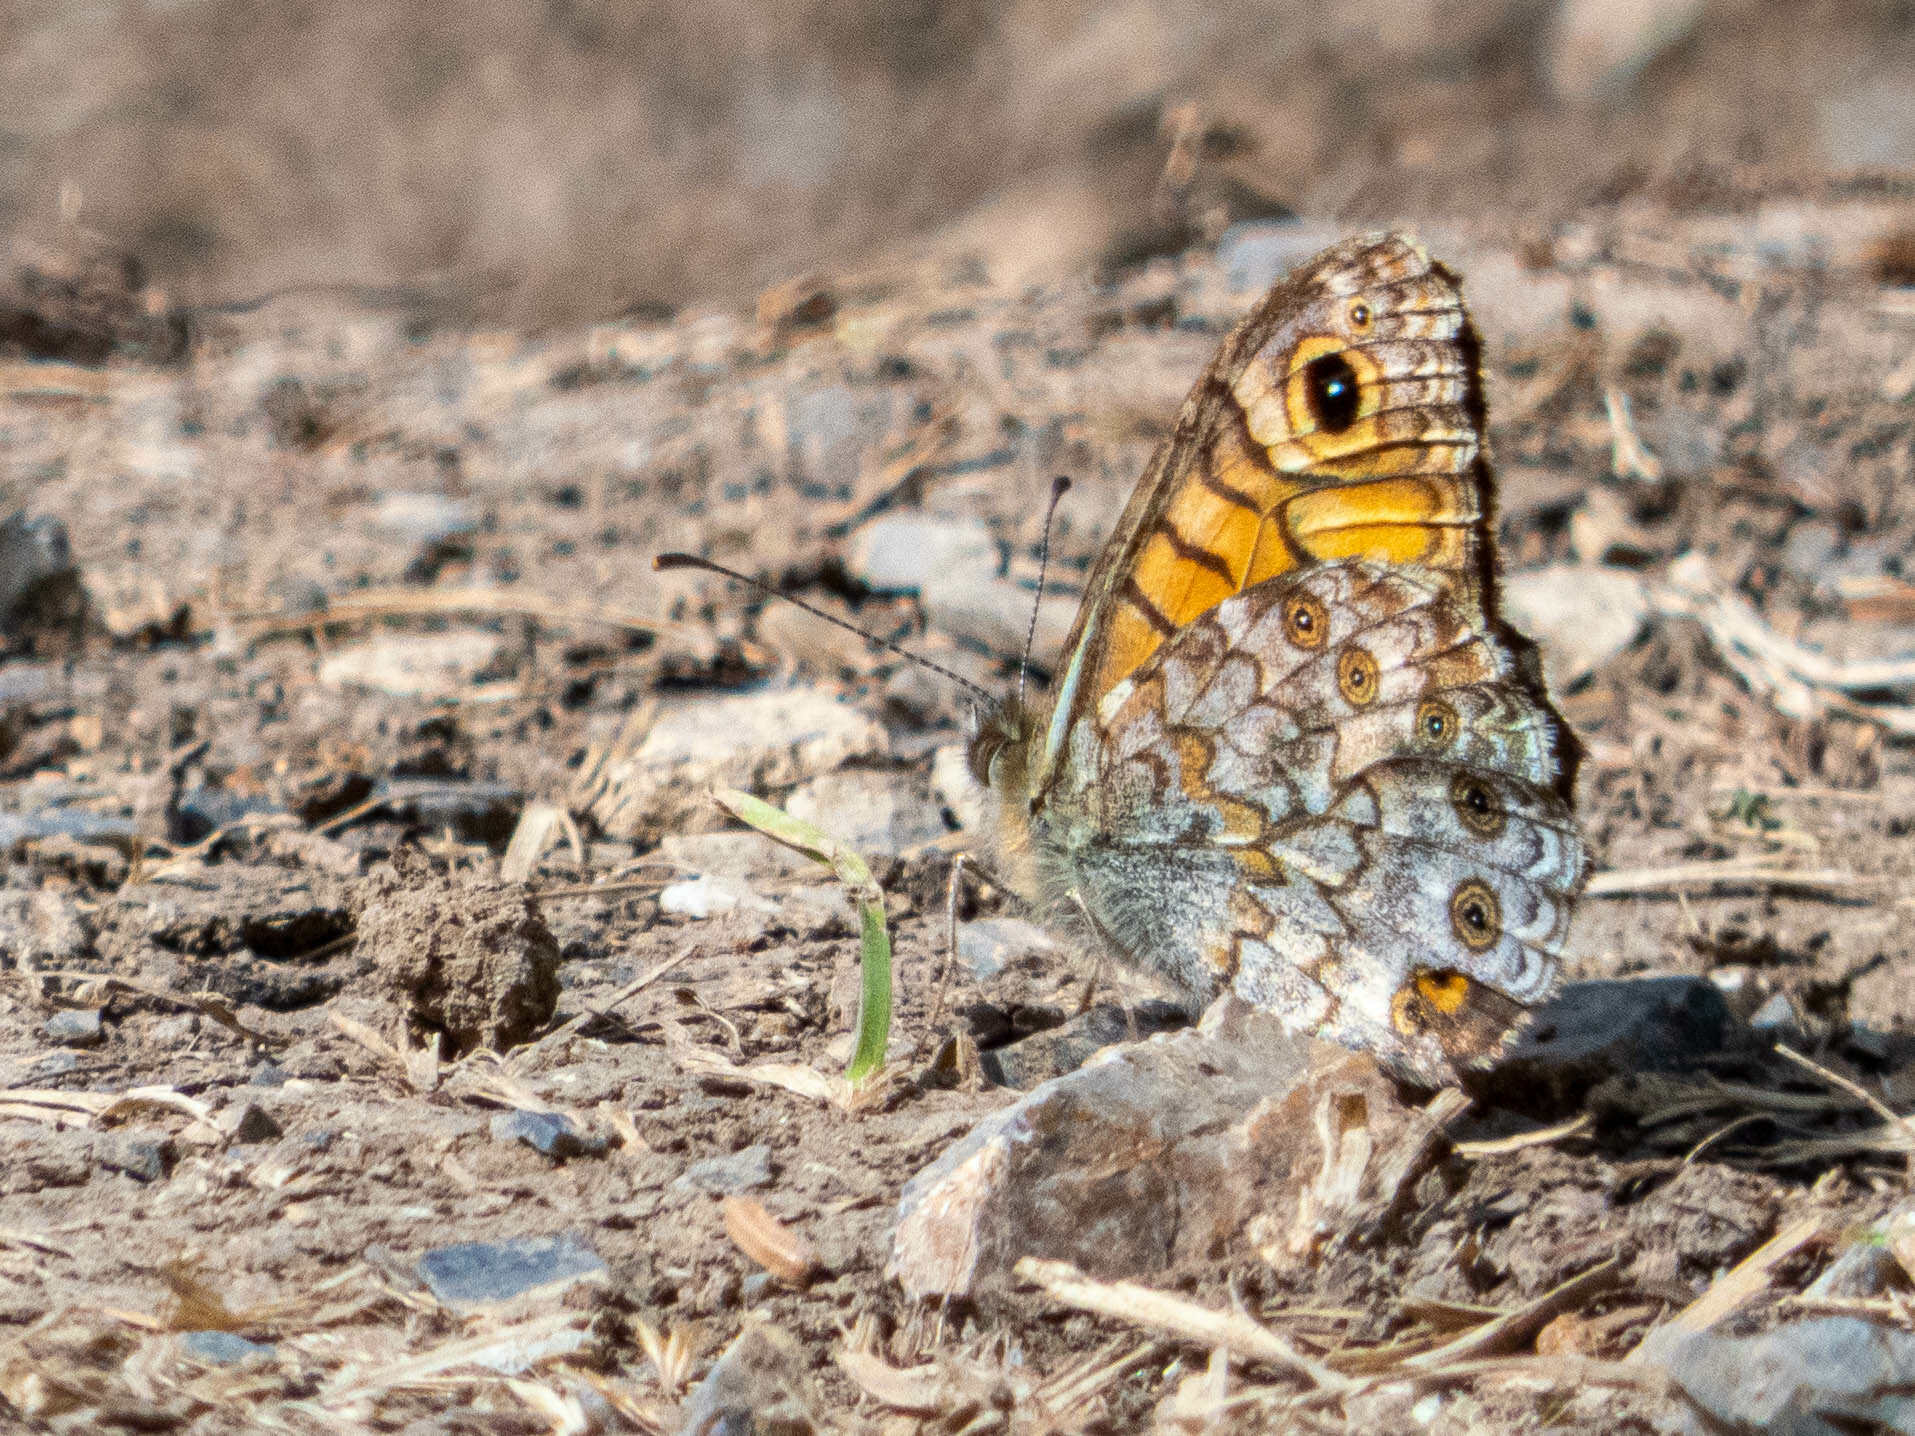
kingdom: Animalia
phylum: Arthropoda
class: Insecta
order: Lepidoptera
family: Nymphalidae
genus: Pararge
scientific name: Pararge Lasiommata megera
